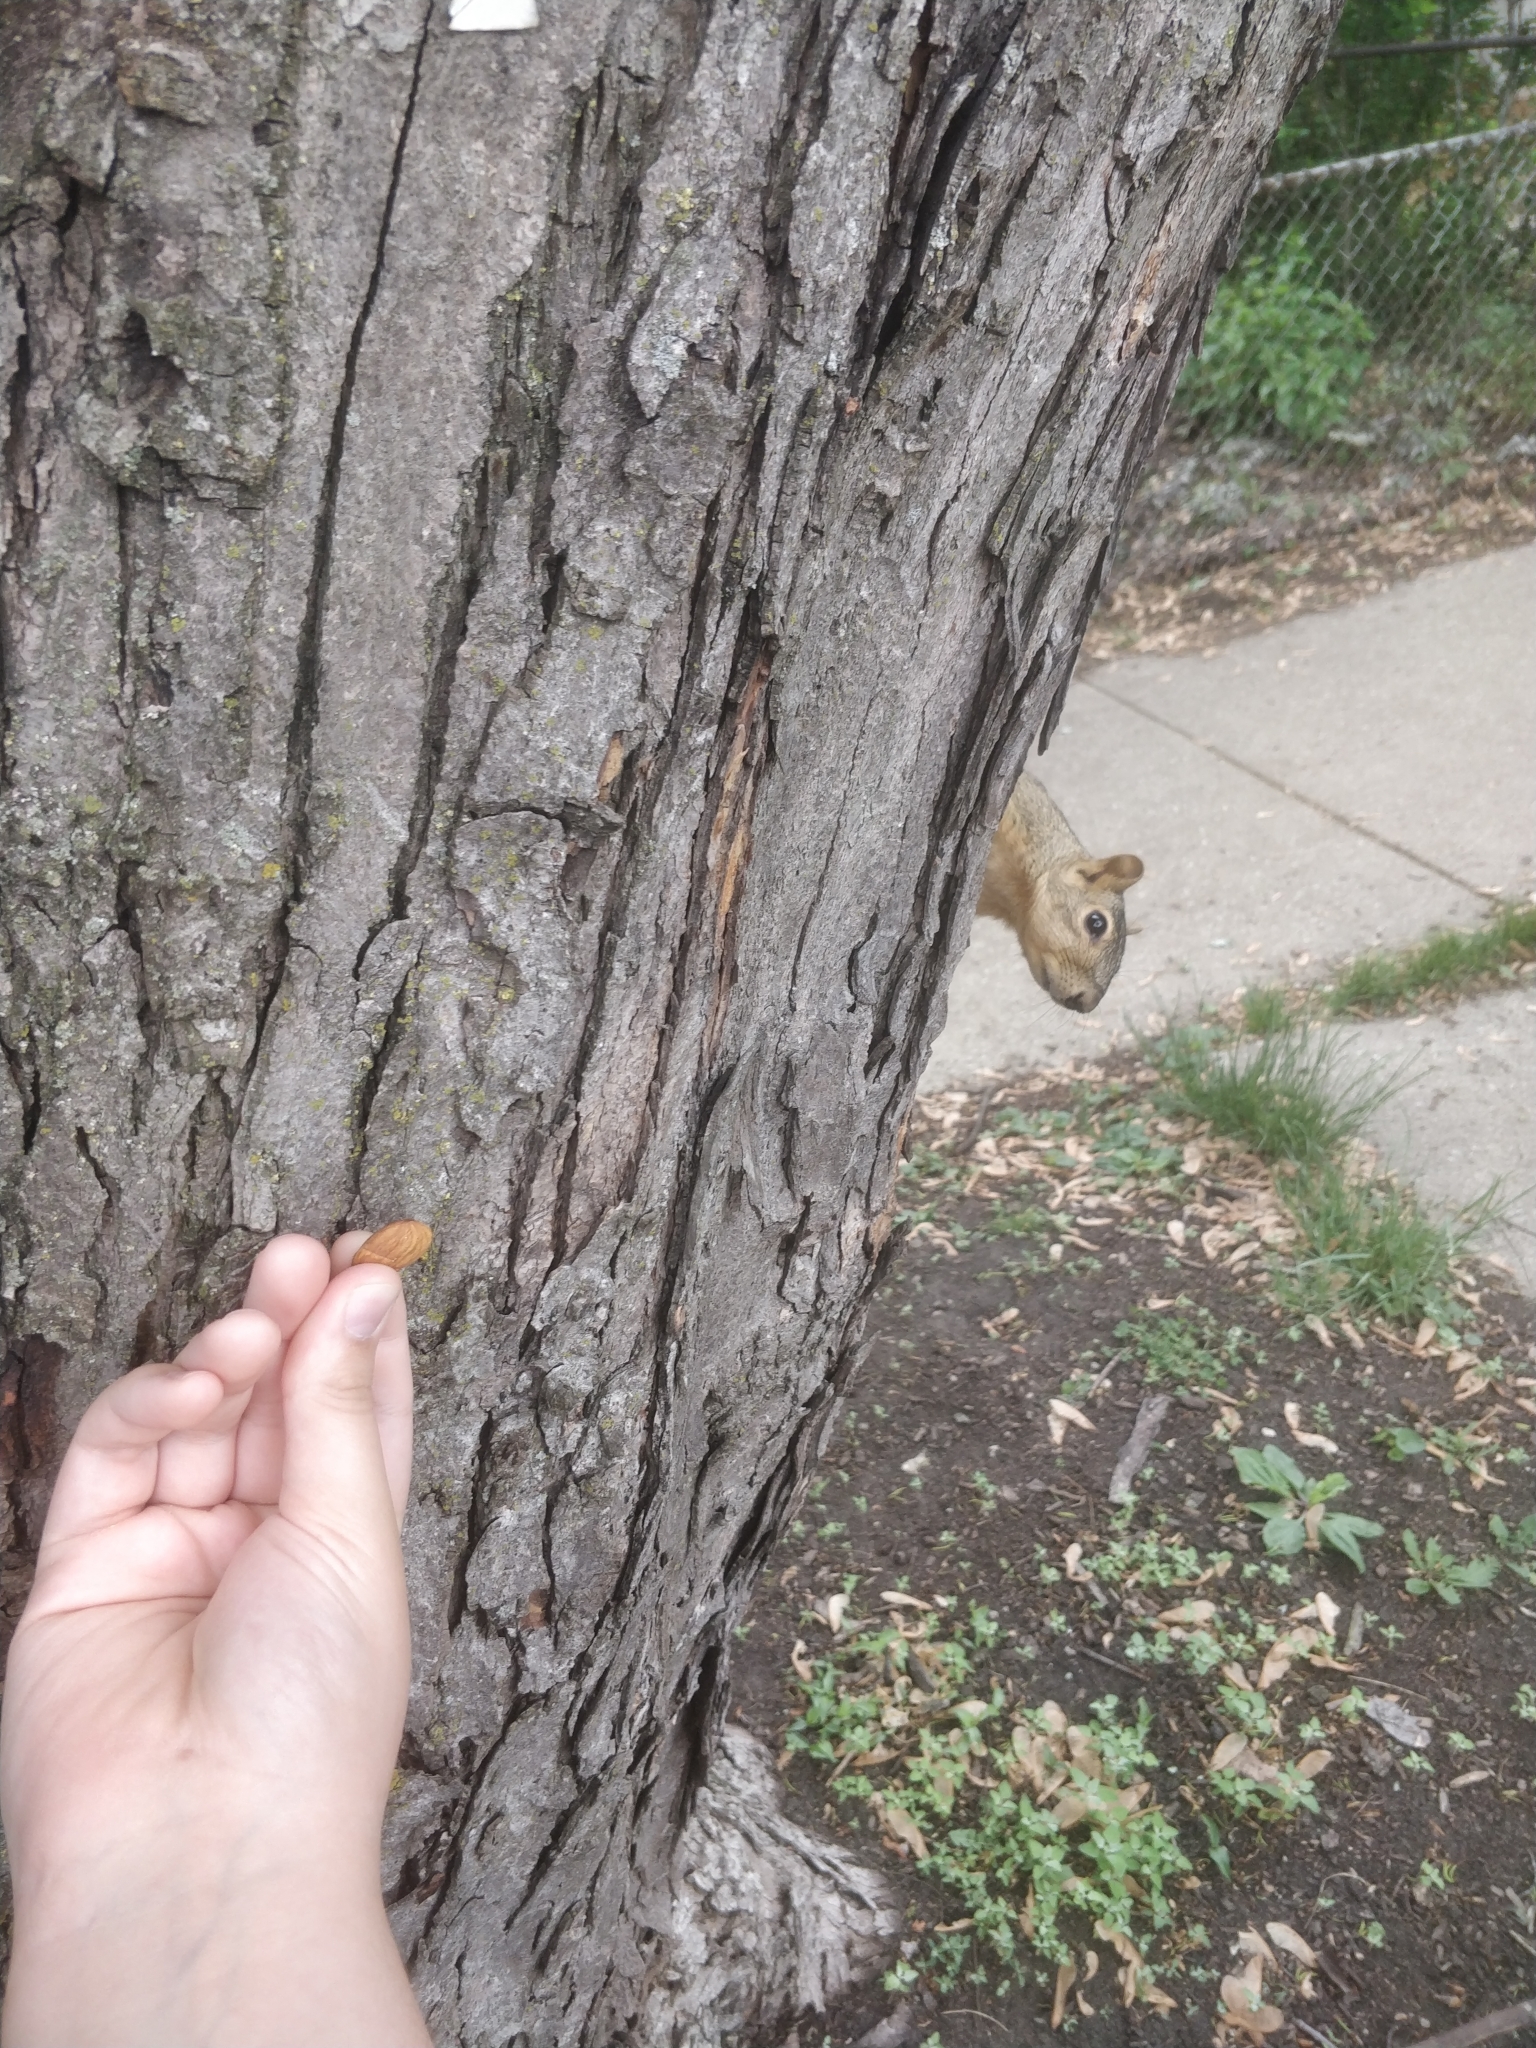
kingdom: Animalia
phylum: Chordata
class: Mammalia
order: Rodentia
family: Sciuridae
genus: Sciurus
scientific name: Sciurus niger
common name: Fox squirrel
